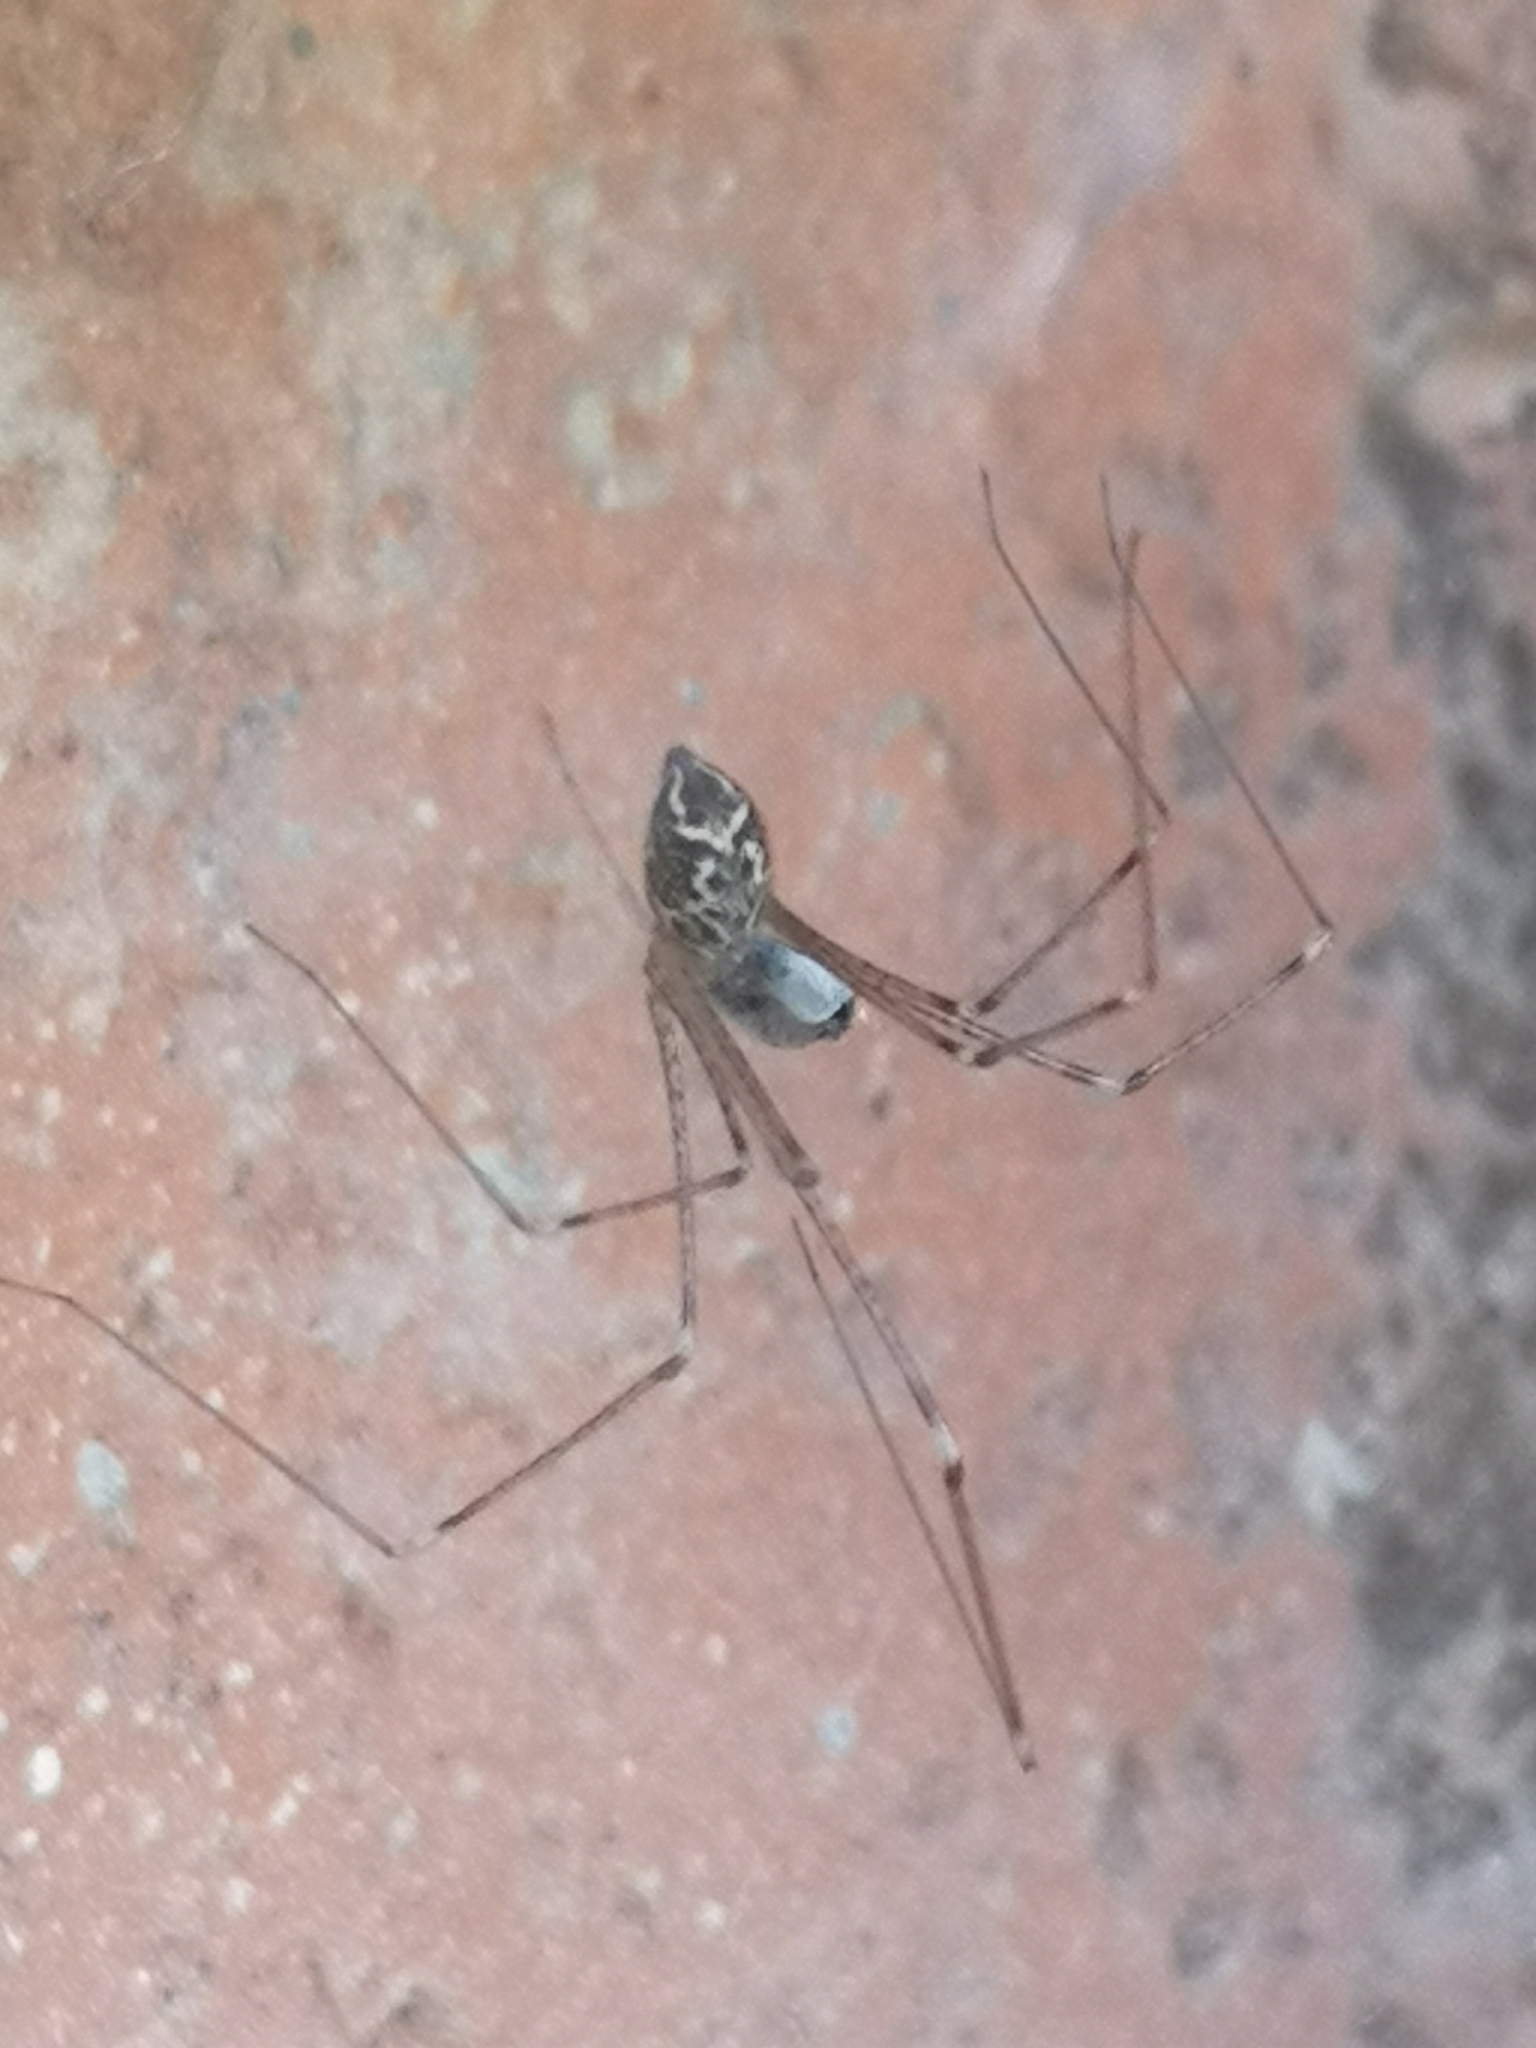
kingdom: Animalia
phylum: Arthropoda
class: Arachnida
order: Araneae
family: Pholcidae
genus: Holocnemus
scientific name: Holocnemus pluchei
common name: Marbled cellar spider
